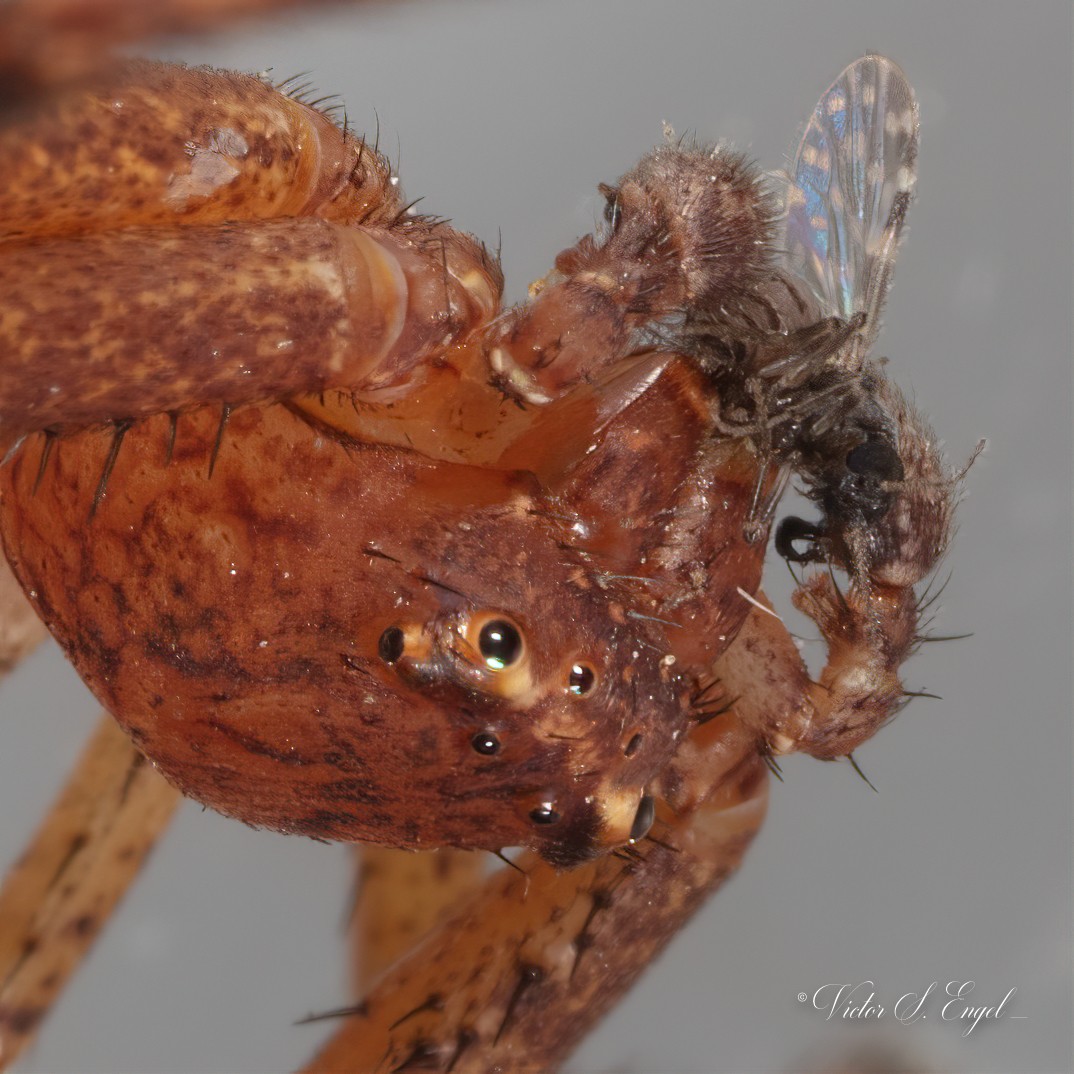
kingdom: Animalia
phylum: Arthropoda
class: Arachnida
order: Araneae
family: Thomisidae
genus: Xysticus
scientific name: Xysticus funestus
